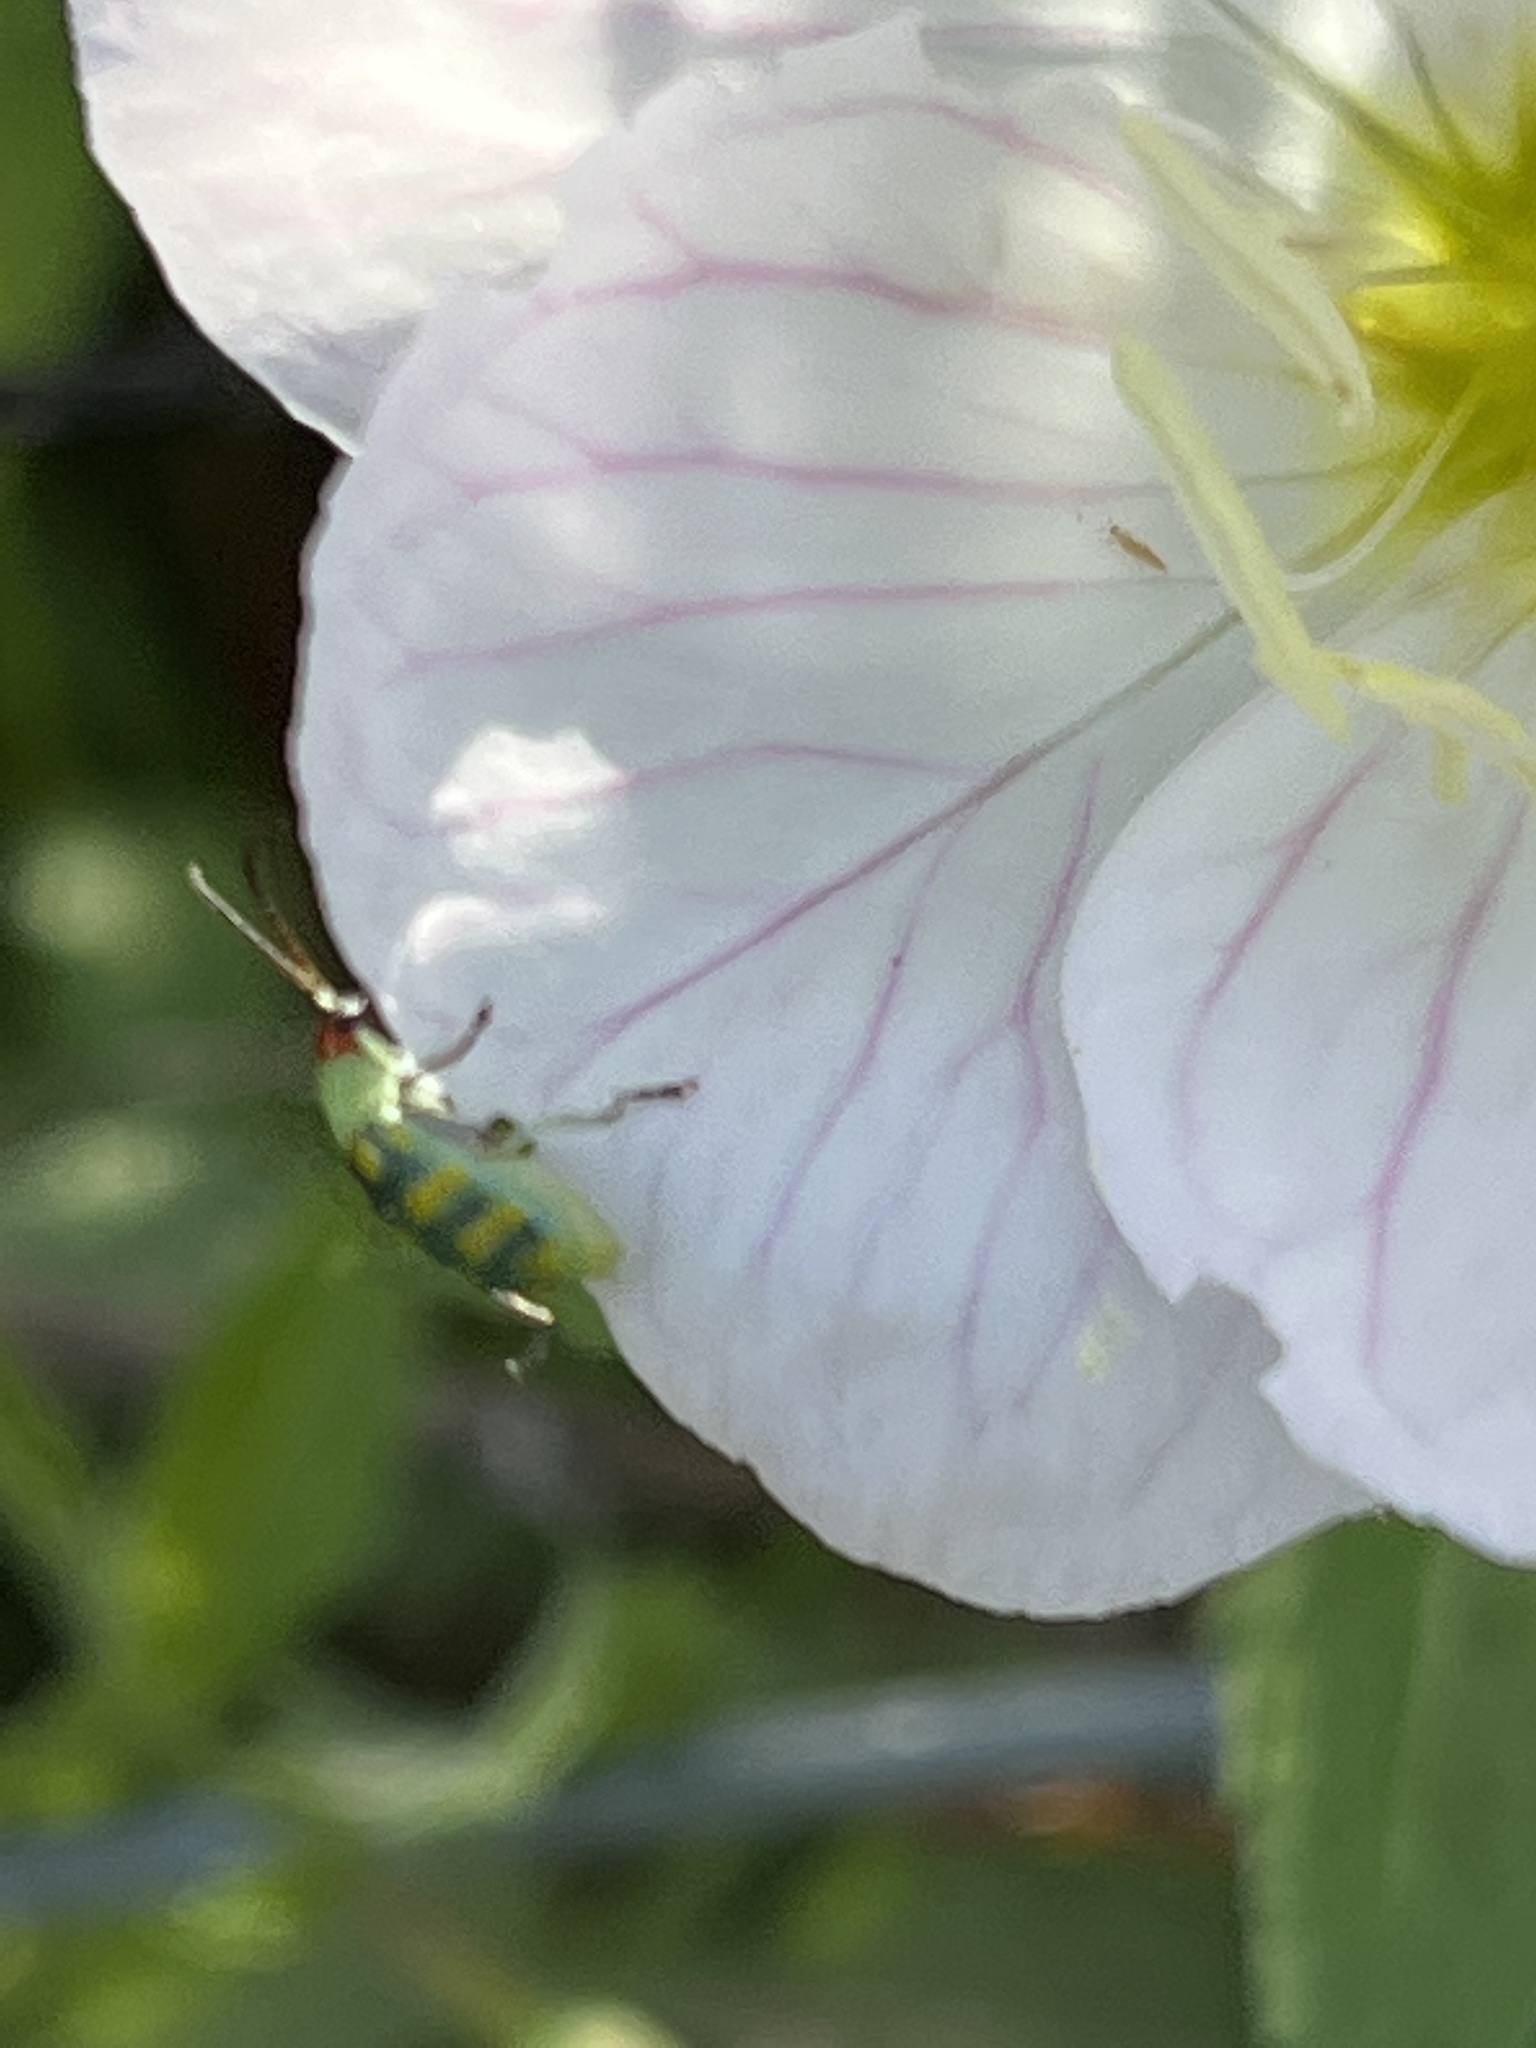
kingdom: Animalia
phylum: Arthropoda
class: Insecta
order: Coleoptera
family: Chrysomelidae
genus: Diabrotica
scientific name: Diabrotica balteata
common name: Leaf beetle
